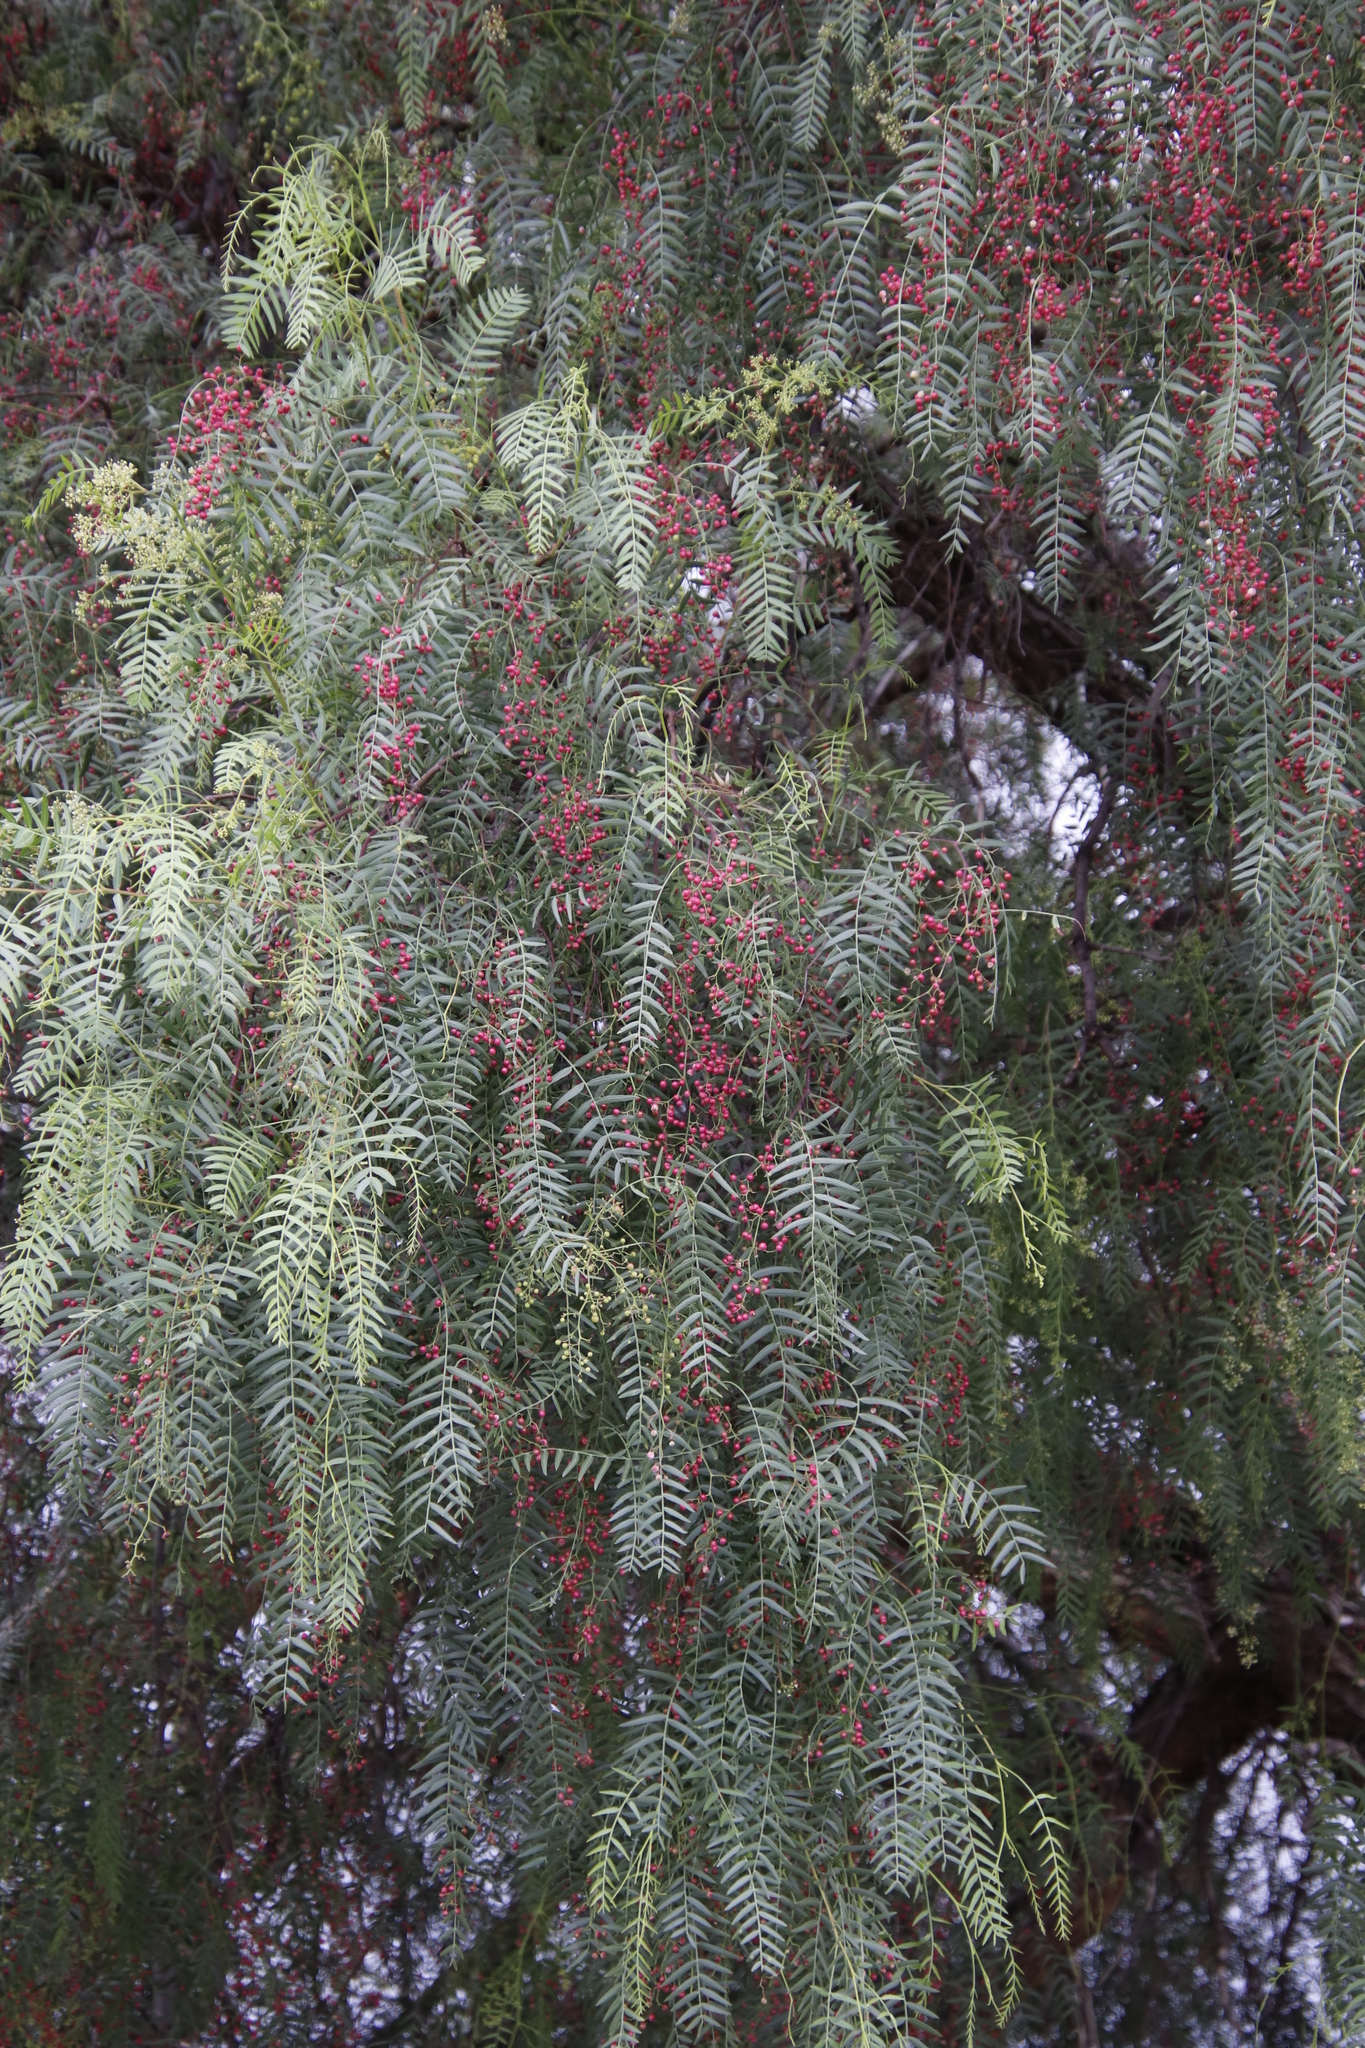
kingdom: Plantae
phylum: Tracheophyta
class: Magnoliopsida
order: Sapindales
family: Anacardiaceae
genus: Schinus
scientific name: Schinus molle
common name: Peruvian peppertree
